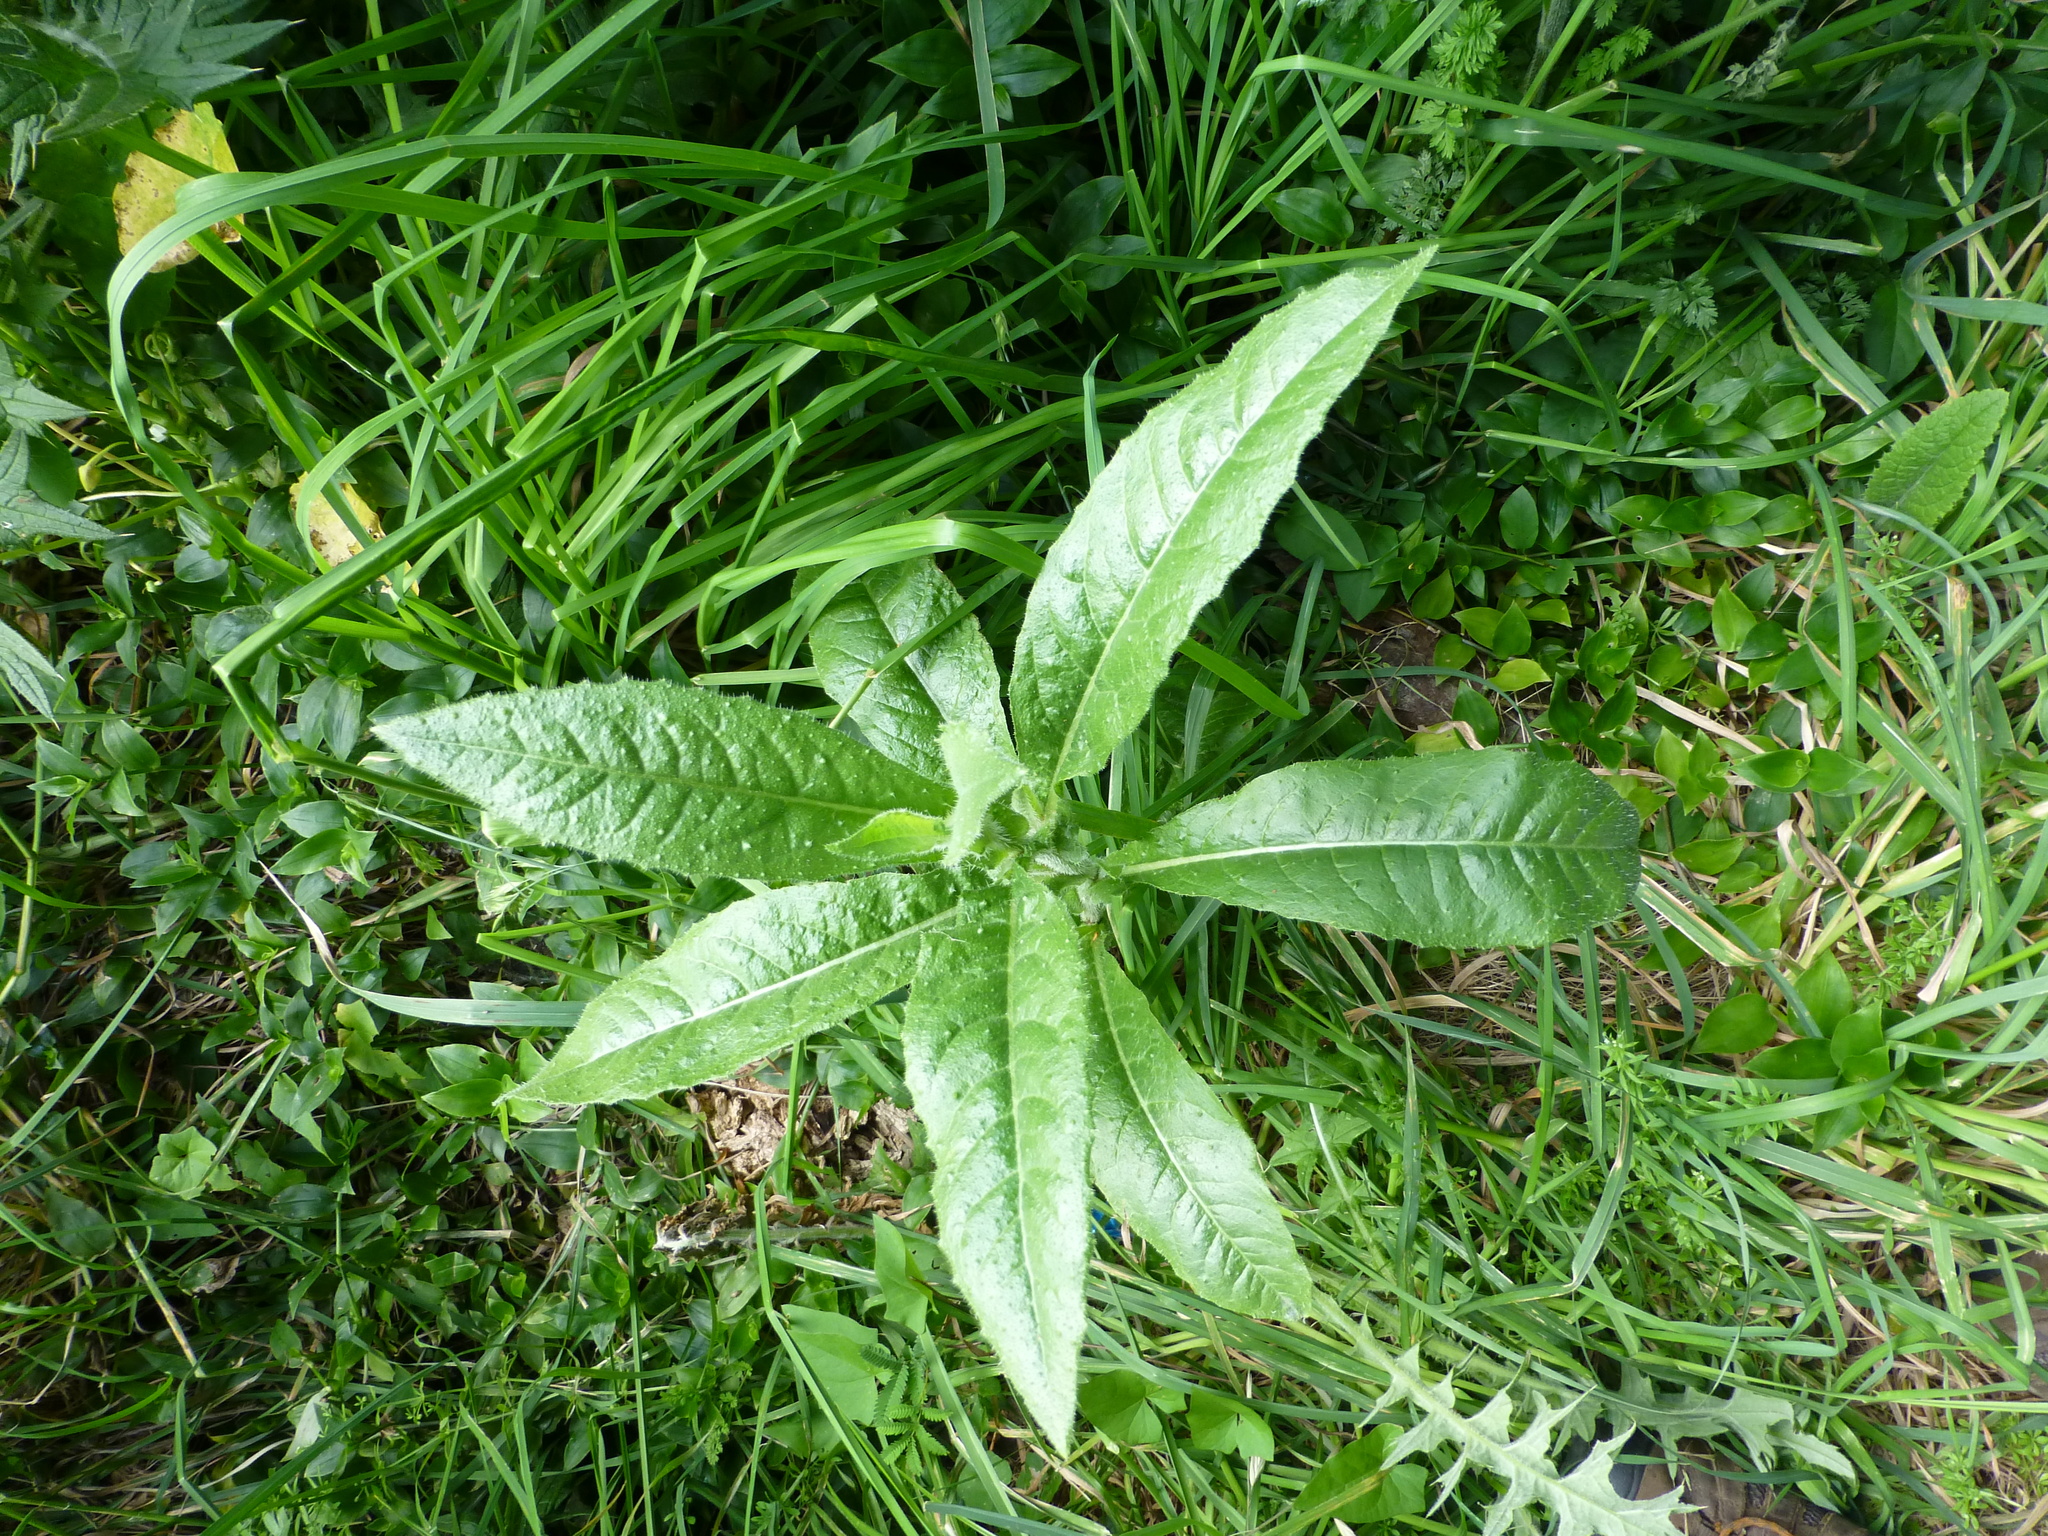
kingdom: Plantae
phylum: Tracheophyta
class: Magnoliopsida
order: Asterales
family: Asteraceae
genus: Helminthotheca
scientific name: Helminthotheca echioides
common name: Ox-tongue
